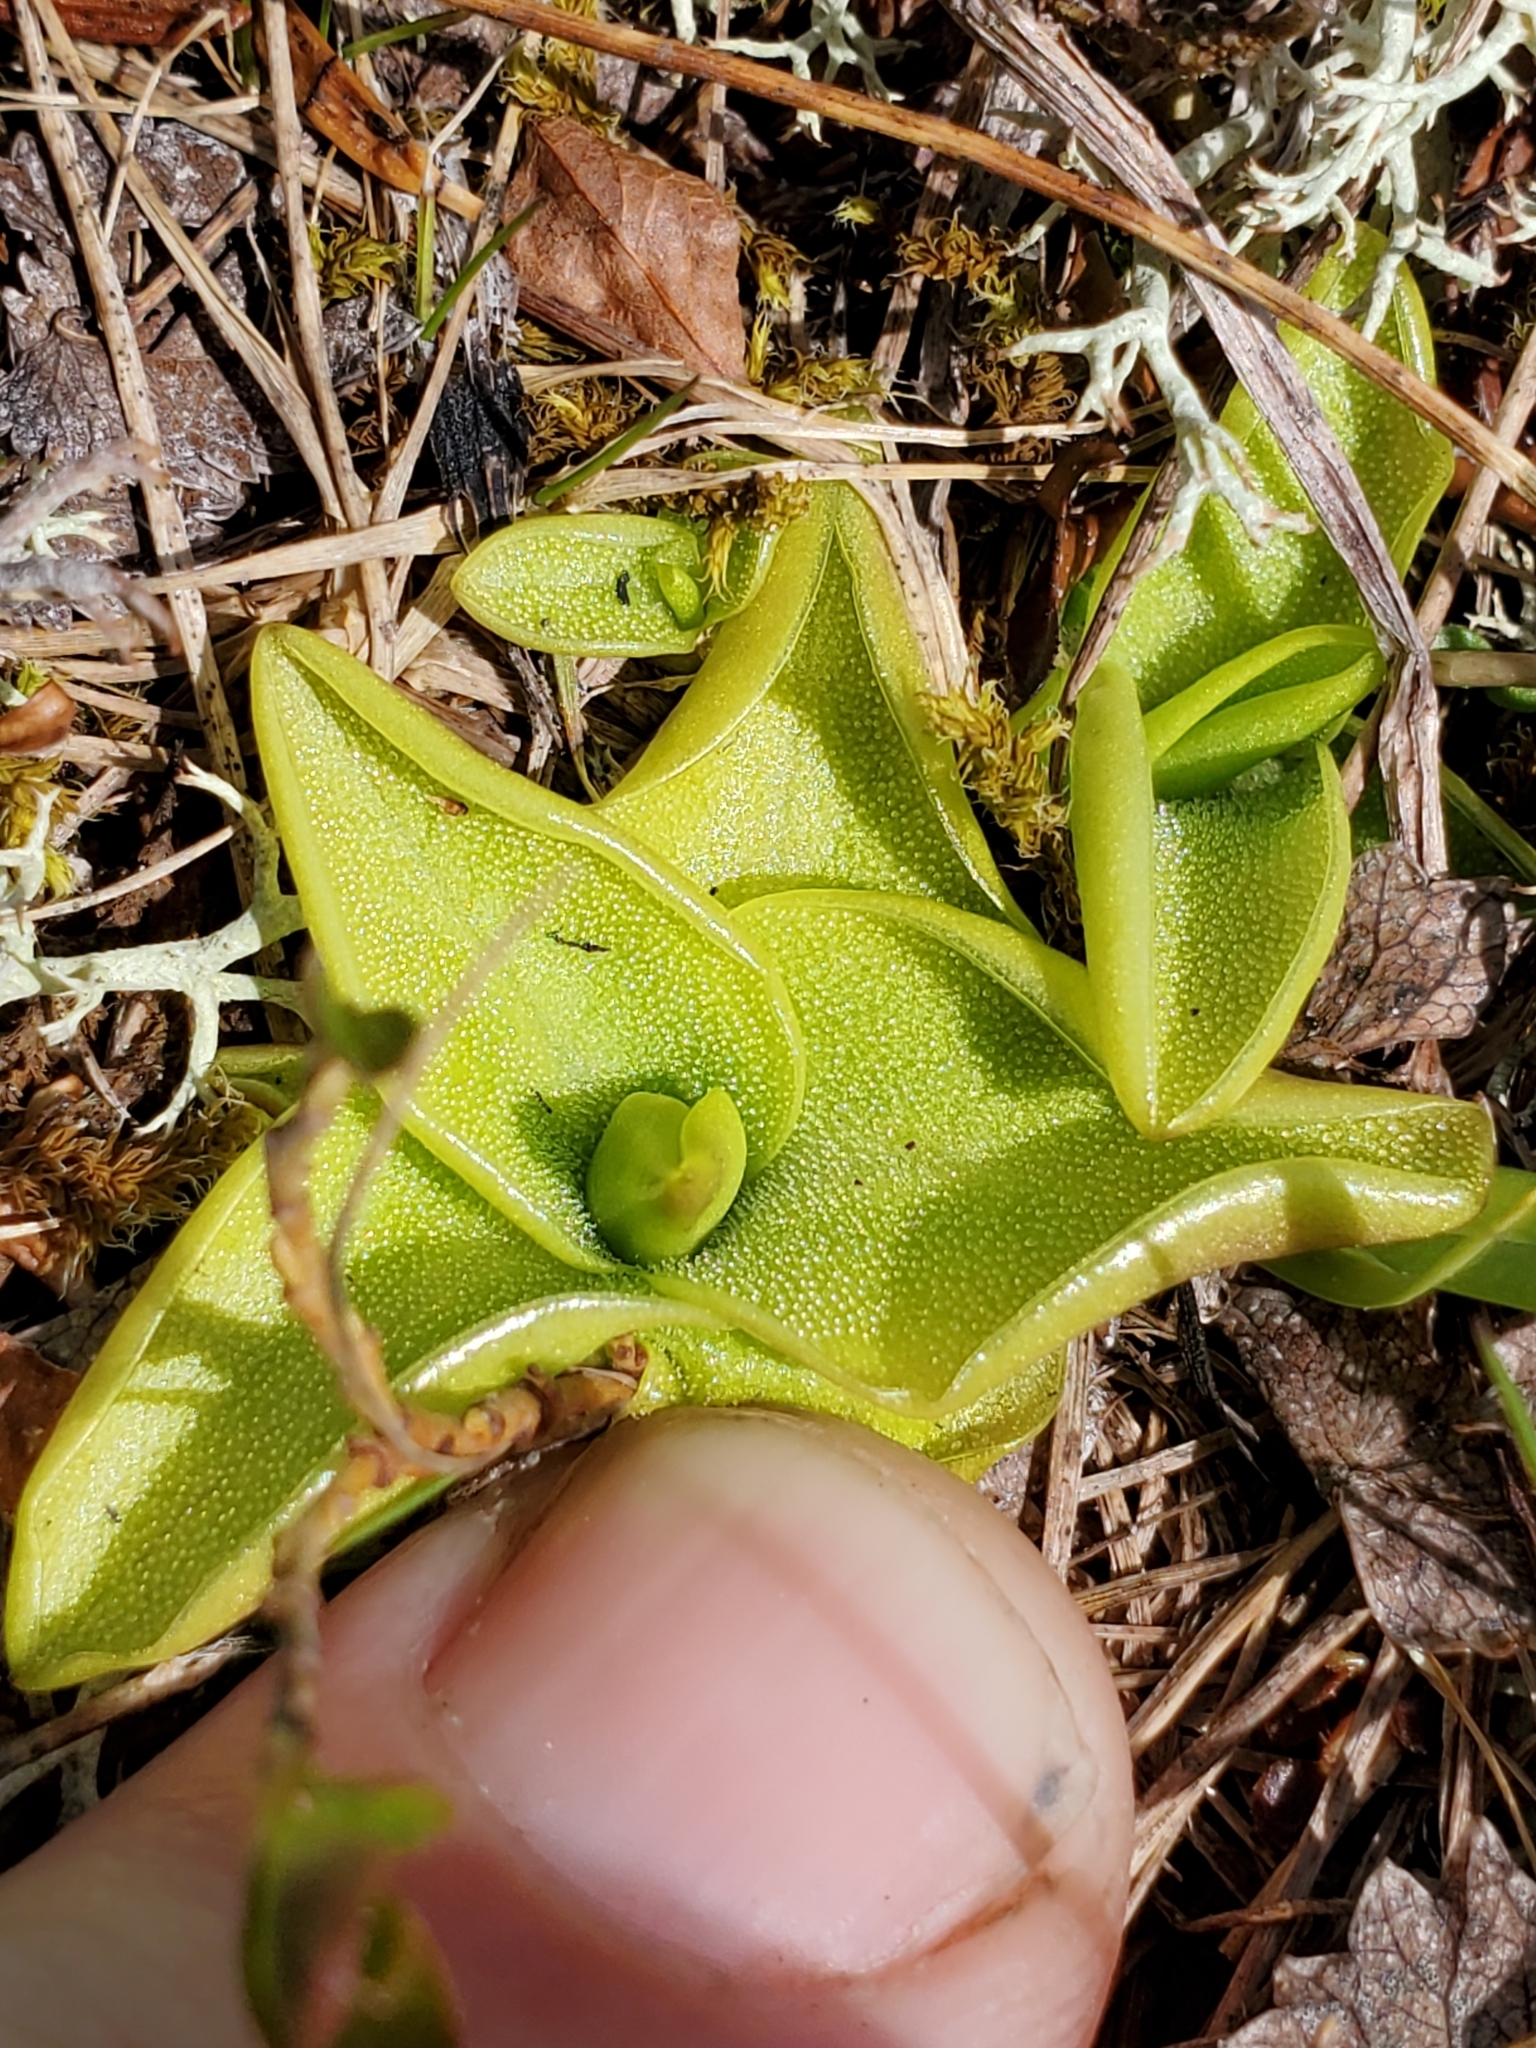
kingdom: Plantae
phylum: Tracheophyta
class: Magnoliopsida
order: Lamiales
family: Lentibulariaceae
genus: Pinguicula
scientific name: Pinguicula vulgaris
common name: Common butterwort
